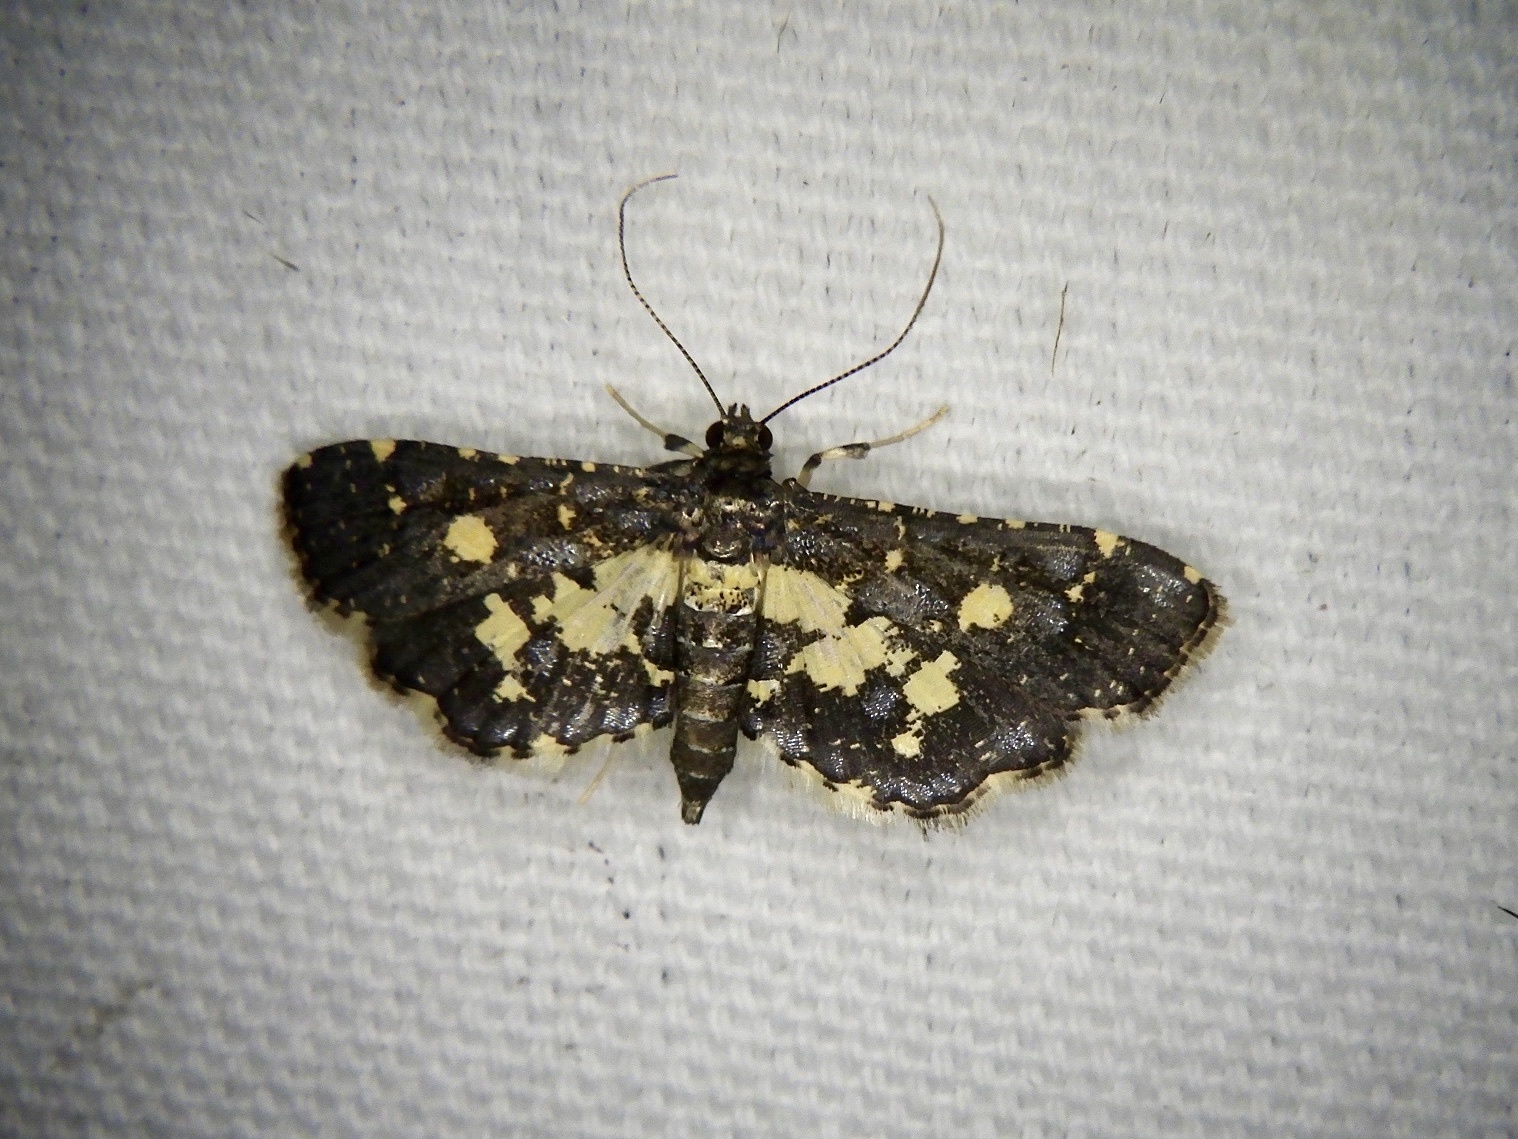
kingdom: Animalia
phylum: Arthropoda
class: Insecta
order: Lepidoptera
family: Crambidae
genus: Eurrhyparodes
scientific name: Eurrhyparodes bracteolalis
